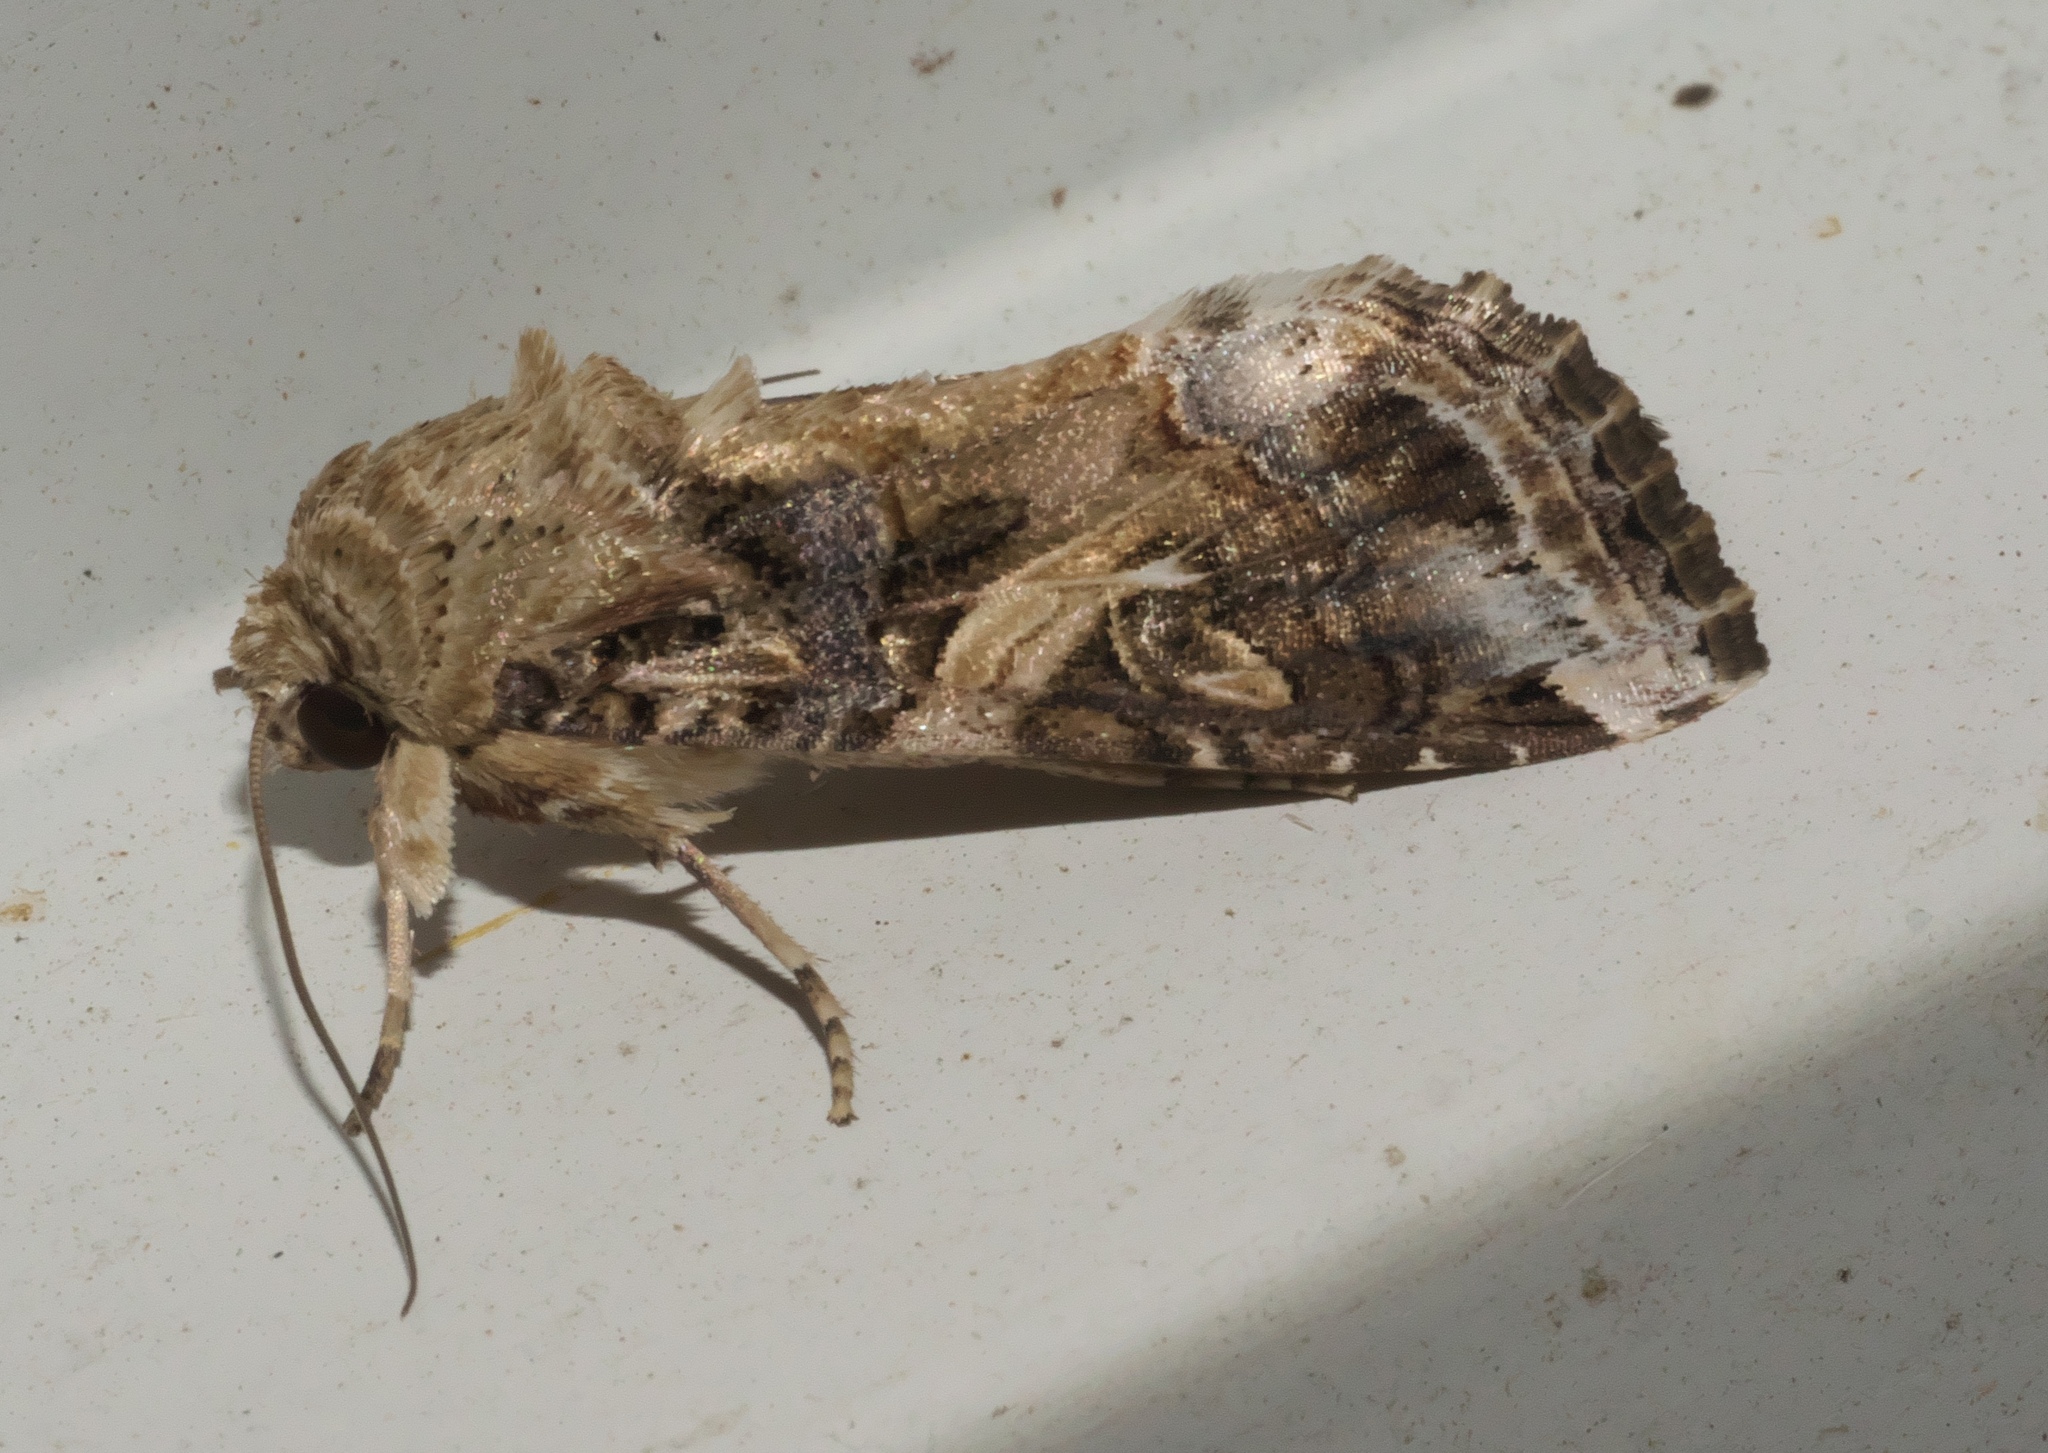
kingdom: Animalia
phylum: Arthropoda
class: Insecta
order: Lepidoptera
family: Noctuidae
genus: Spodoptera
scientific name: Spodoptera ornithogalli
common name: Yellow-striped armyworm
